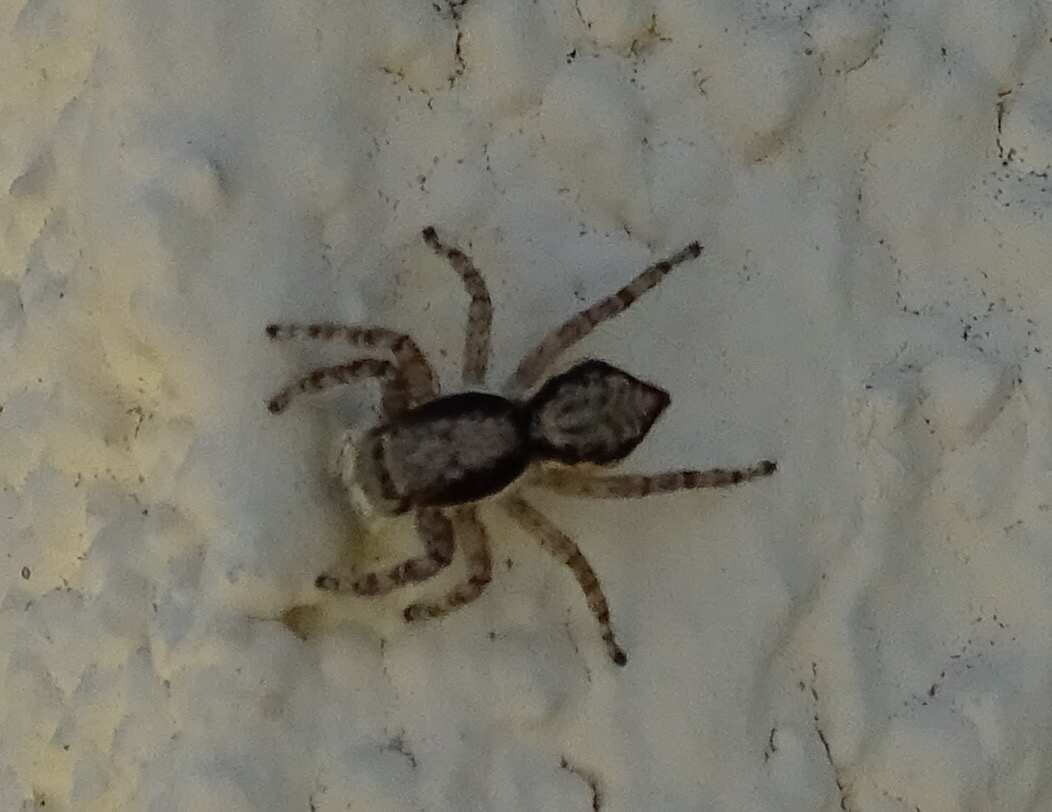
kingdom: Animalia
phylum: Arthropoda
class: Arachnida
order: Araneae
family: Salticidae
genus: Menemerus
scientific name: Menemerus bivittatus
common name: Gray wall jumper
